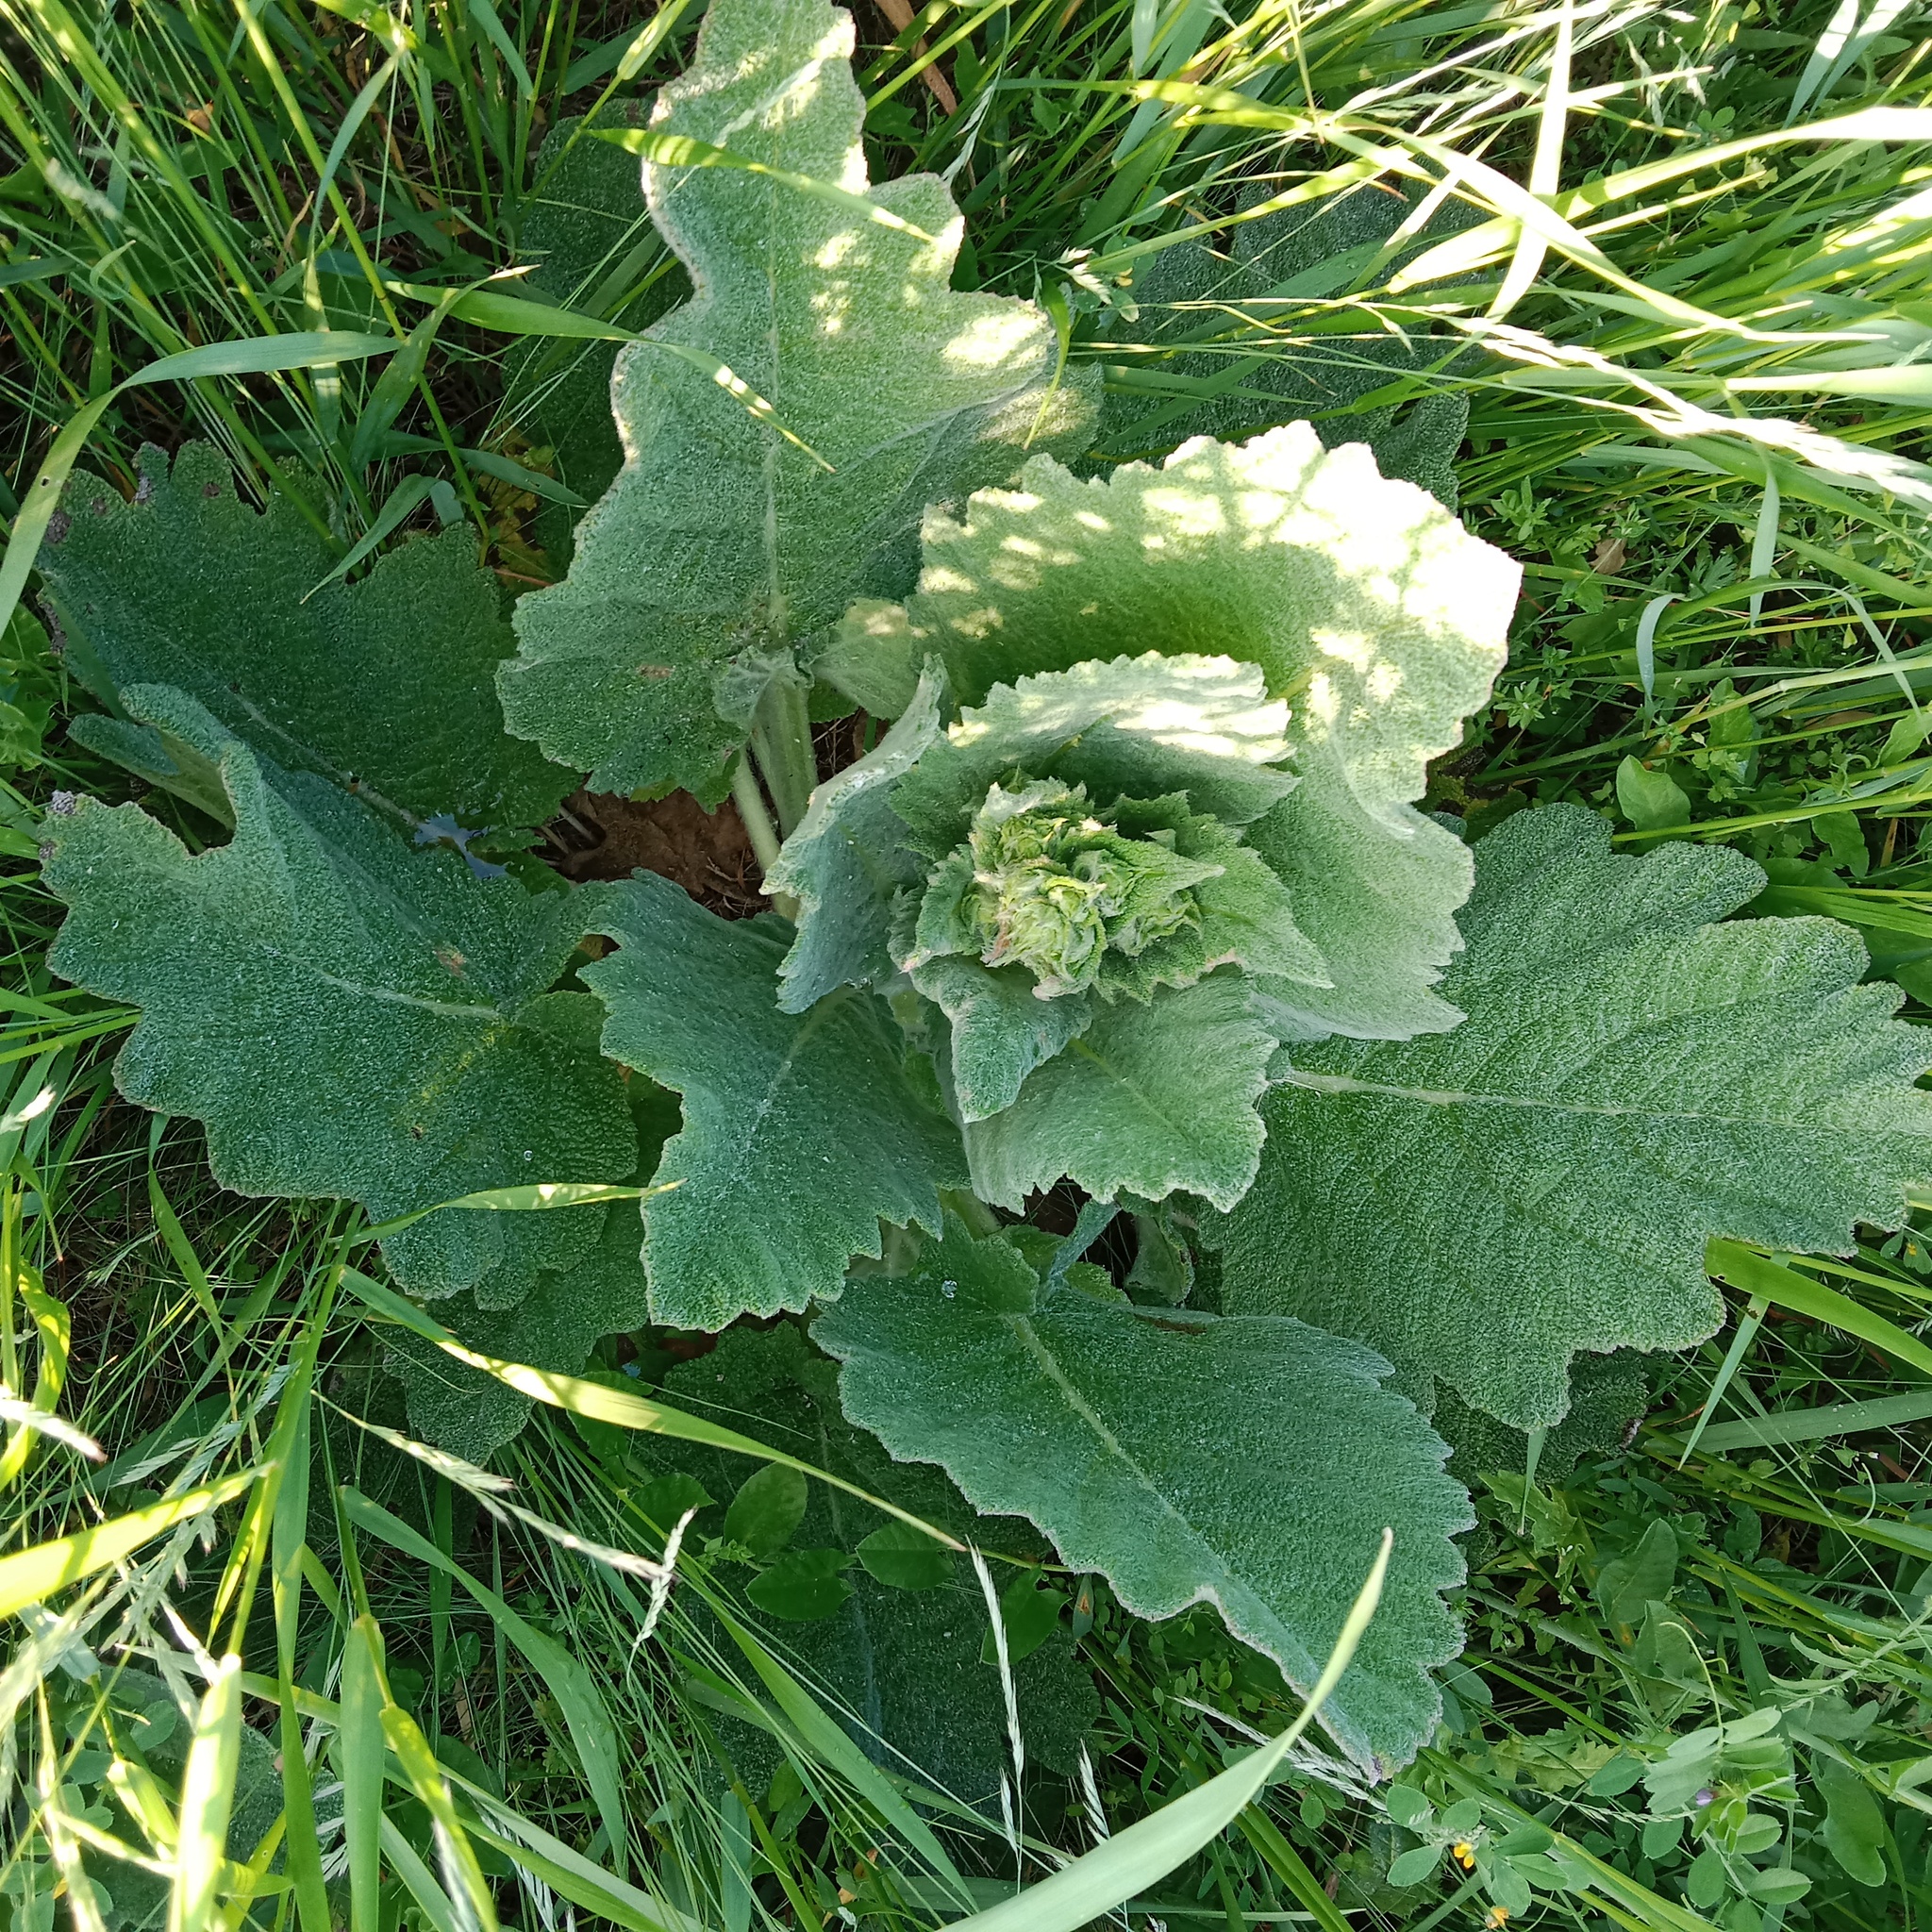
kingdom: Plantae
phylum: Tracheophyta
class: Magnoliopsida
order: Lamiales
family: Lamiaceae
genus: Salvia
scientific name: Salvia aethiopis
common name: Mediterranean sage
